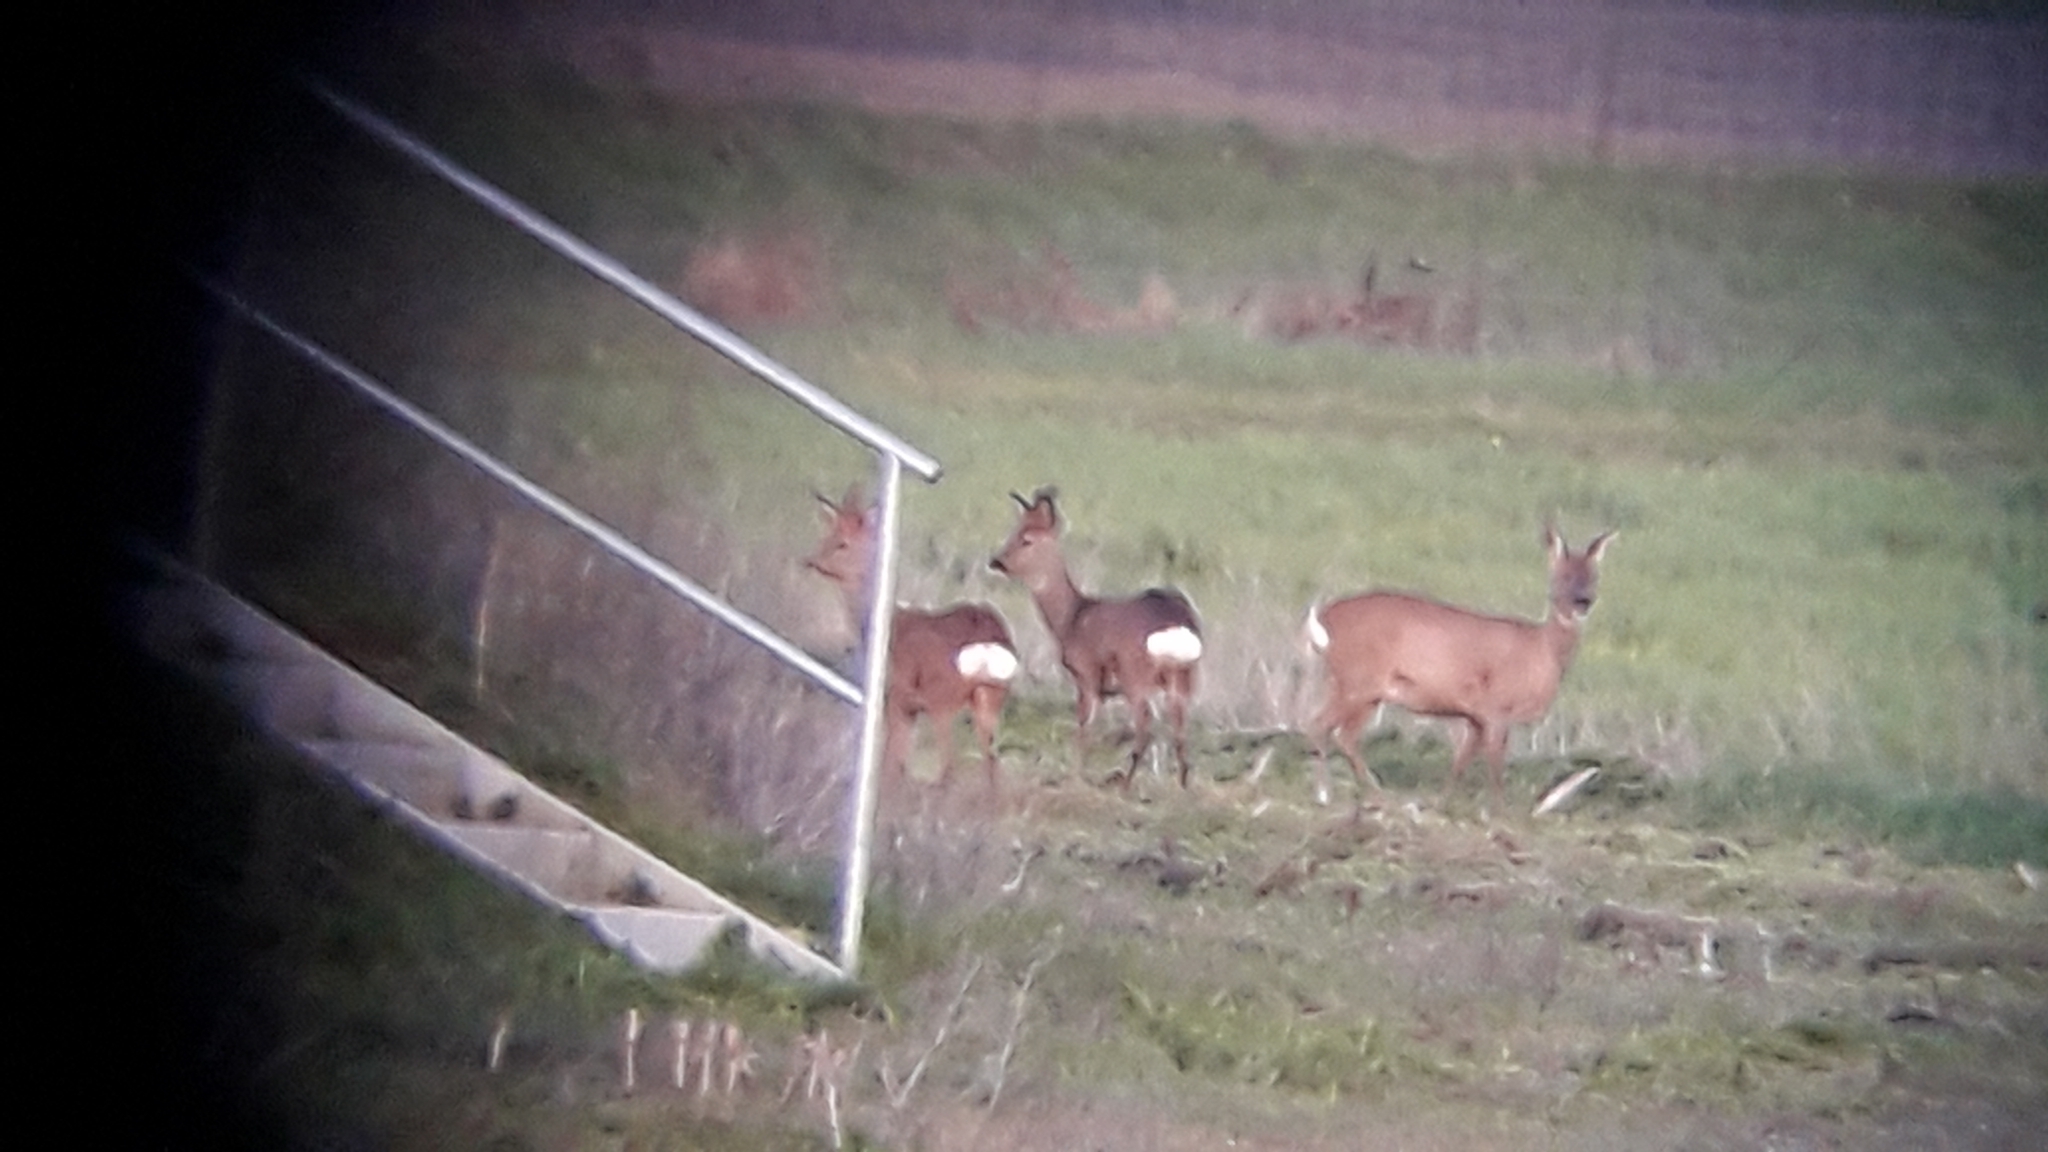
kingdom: Animalia
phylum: Chordata
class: Mammalia
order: Artiodactyla
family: Cervidae
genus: Capreolus
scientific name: Capreolus capreolus
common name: Western roe deer
